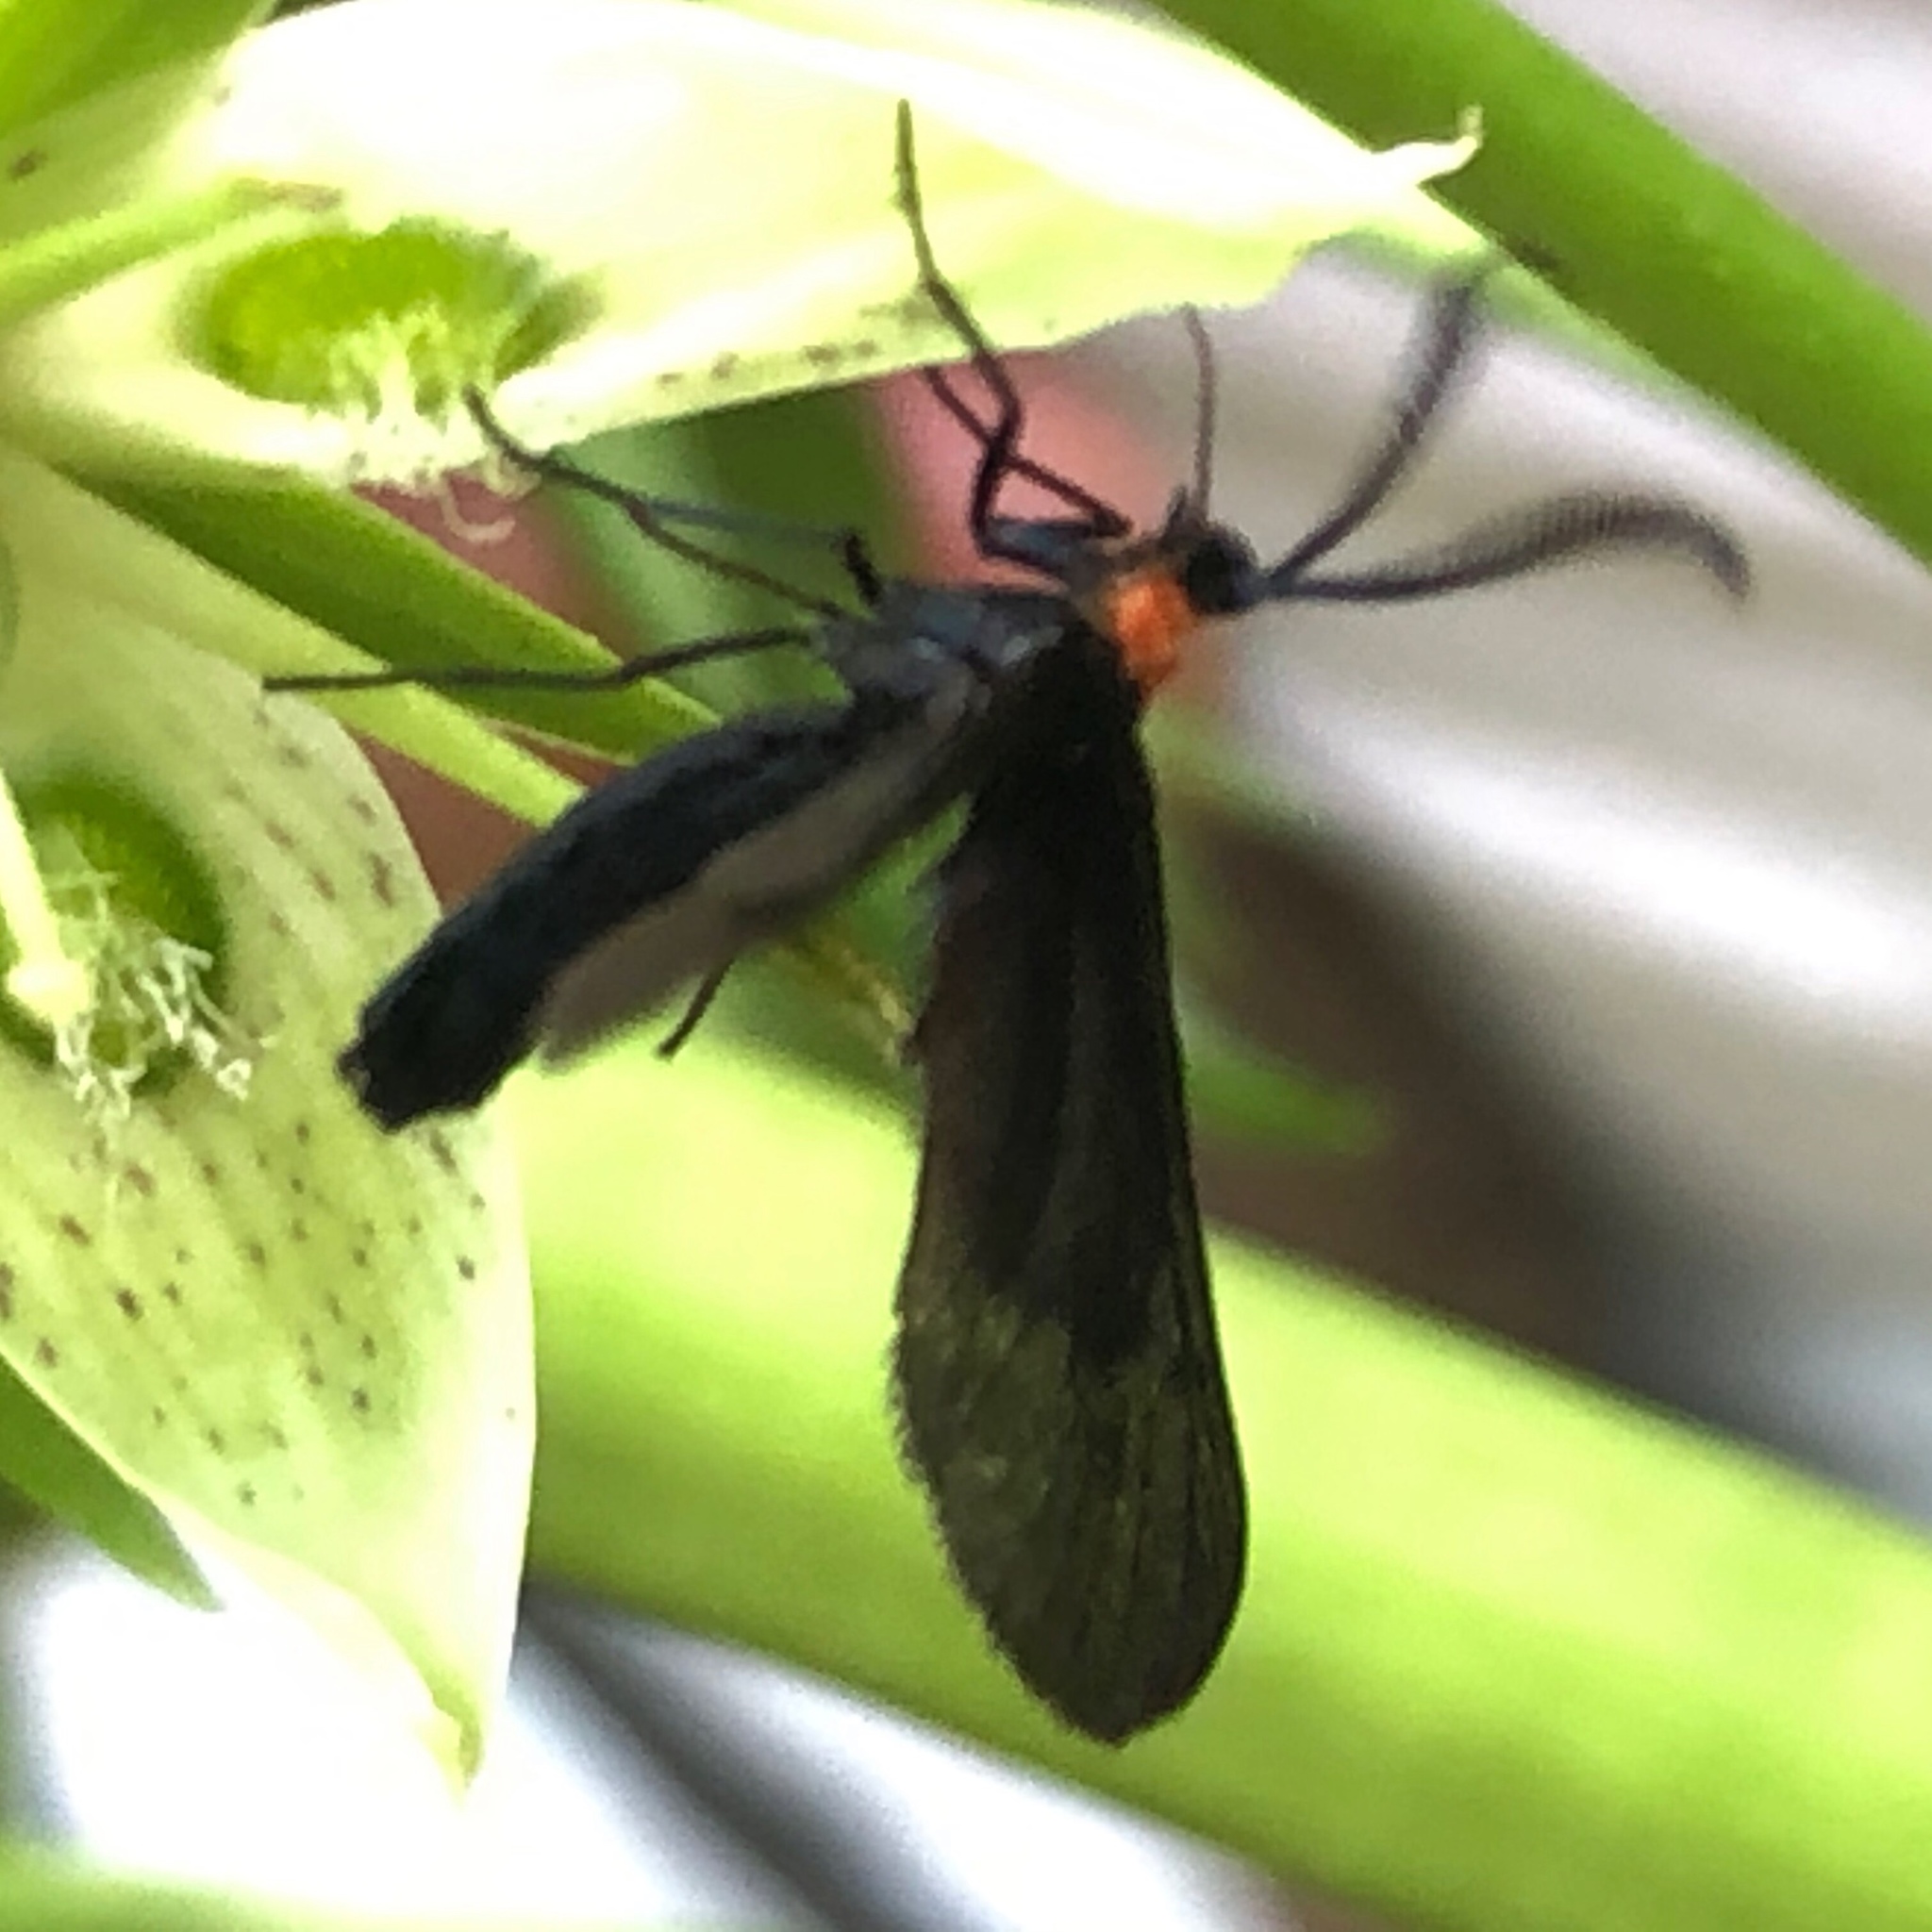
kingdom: Animalia
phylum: Arthropoda
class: Insecta
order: Lepidoptera
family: Zygaenidae
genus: Harrisina
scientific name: Harrisina americana
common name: Grapeleaf skeletonizer moth
